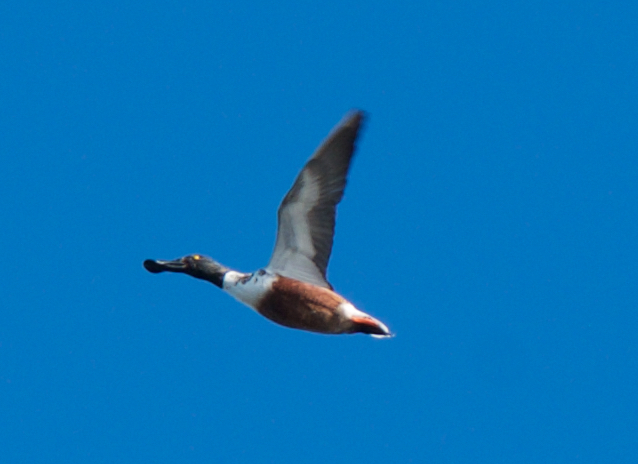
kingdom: Animalia
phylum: Chordata
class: Aves
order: Anseriformes
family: Anatidae
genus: Spatula
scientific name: Spatula clypeata
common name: Northern shoveler
